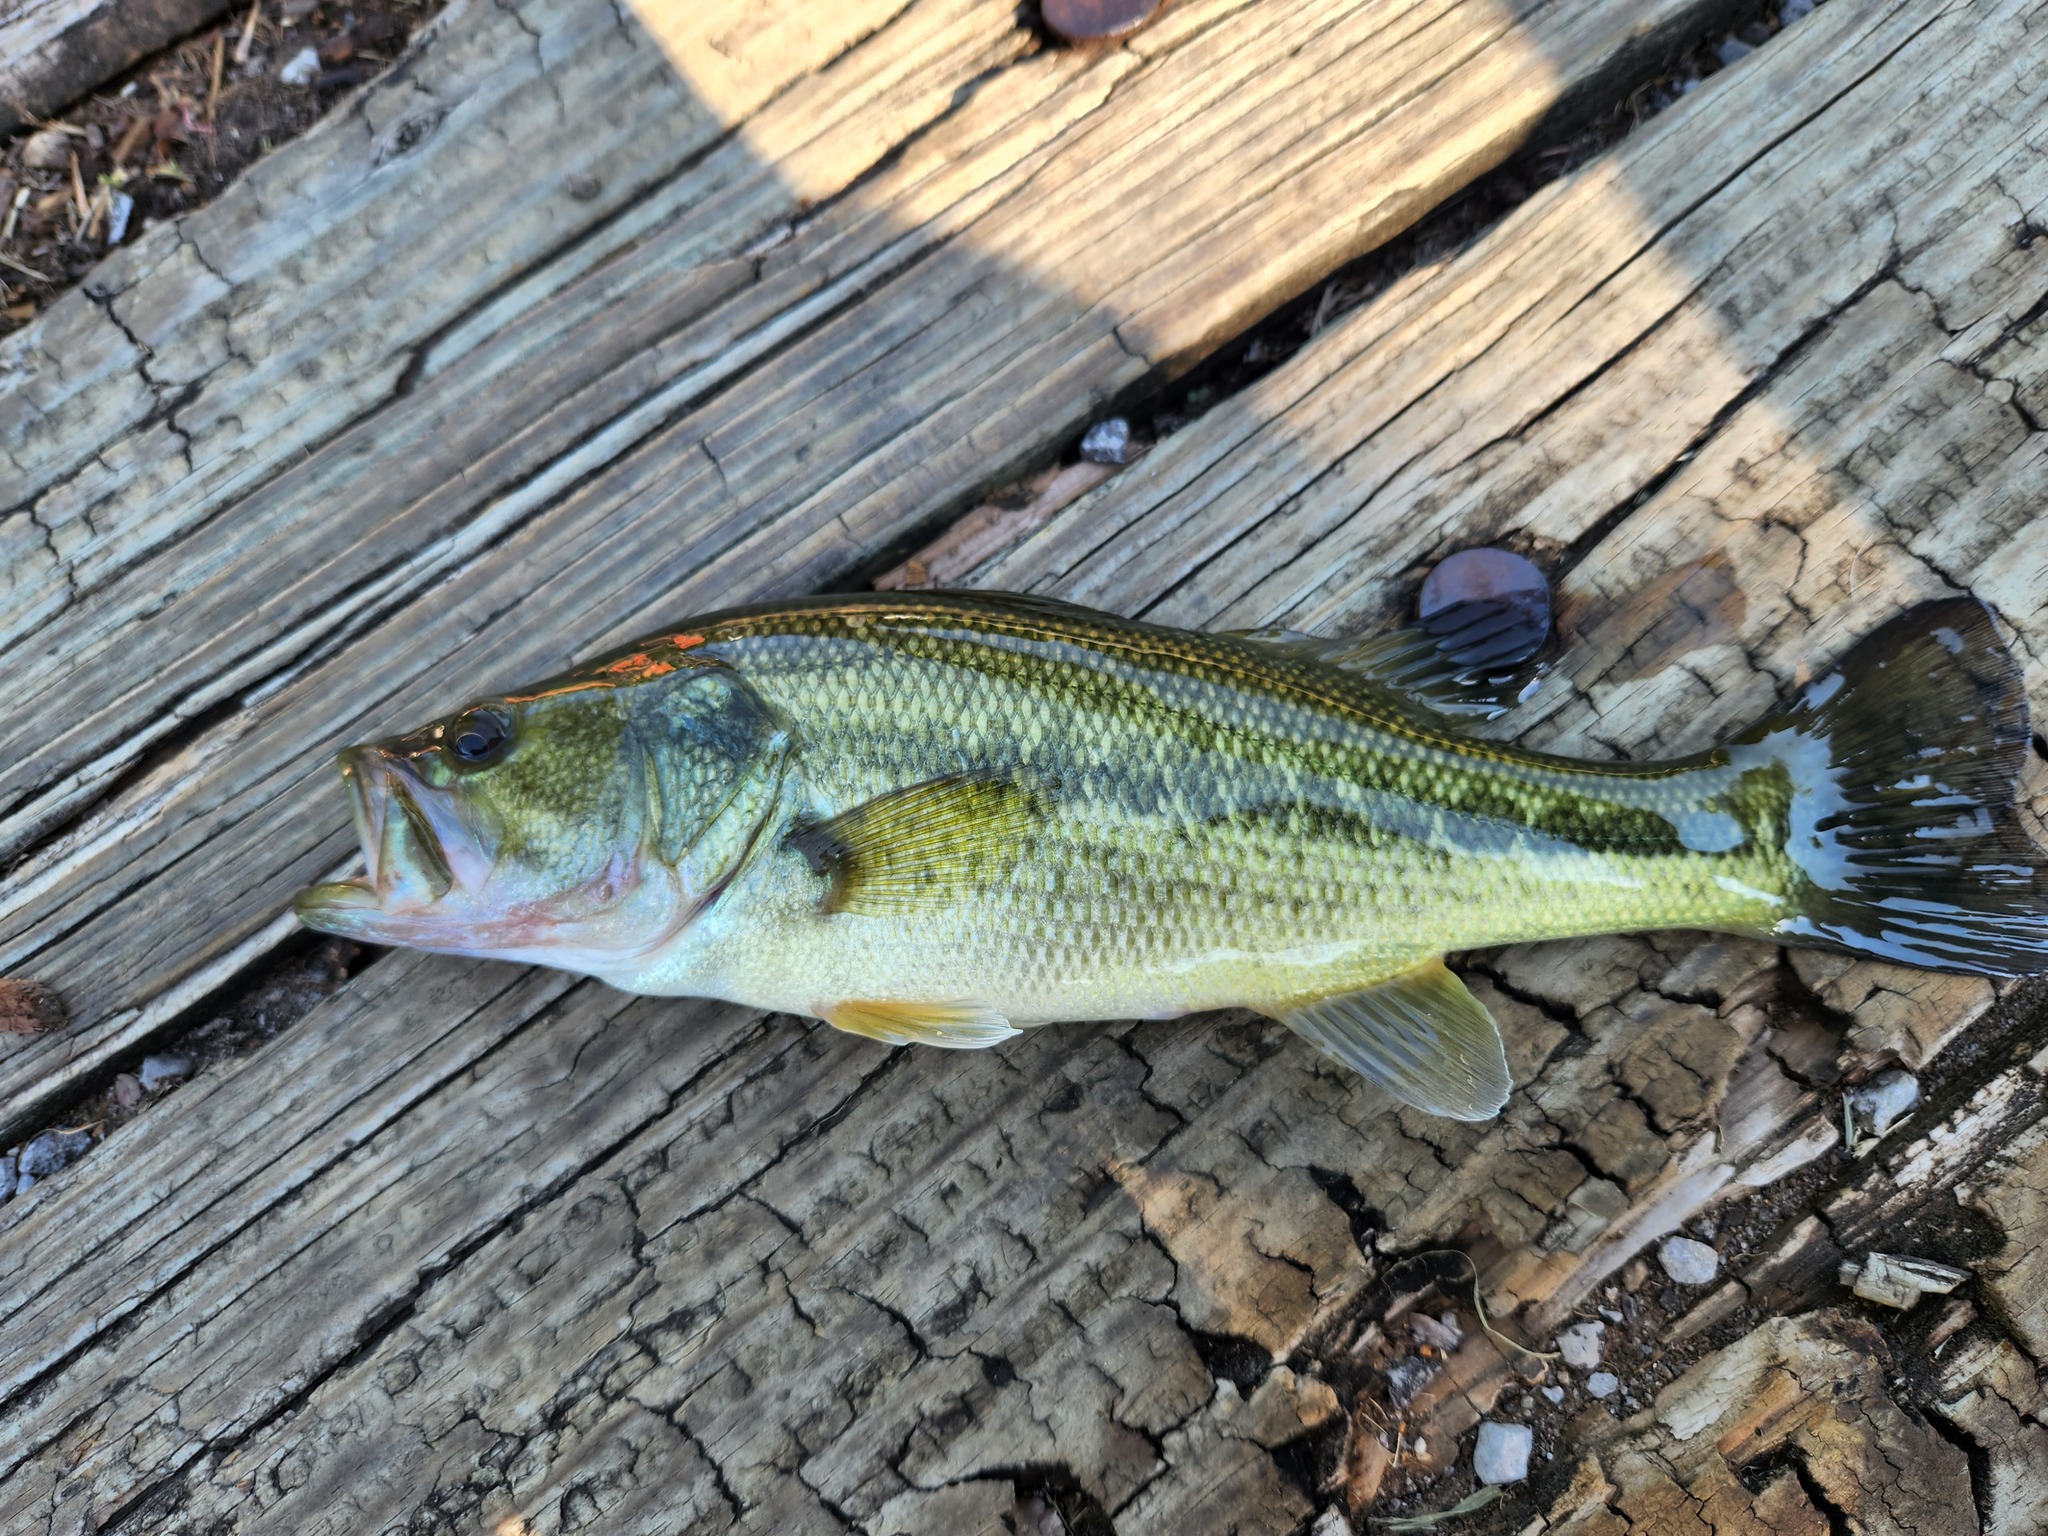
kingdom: Animalia
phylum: Chordata
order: Perciformes
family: Centrarchidae
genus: Micropterus
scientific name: Micropterus
